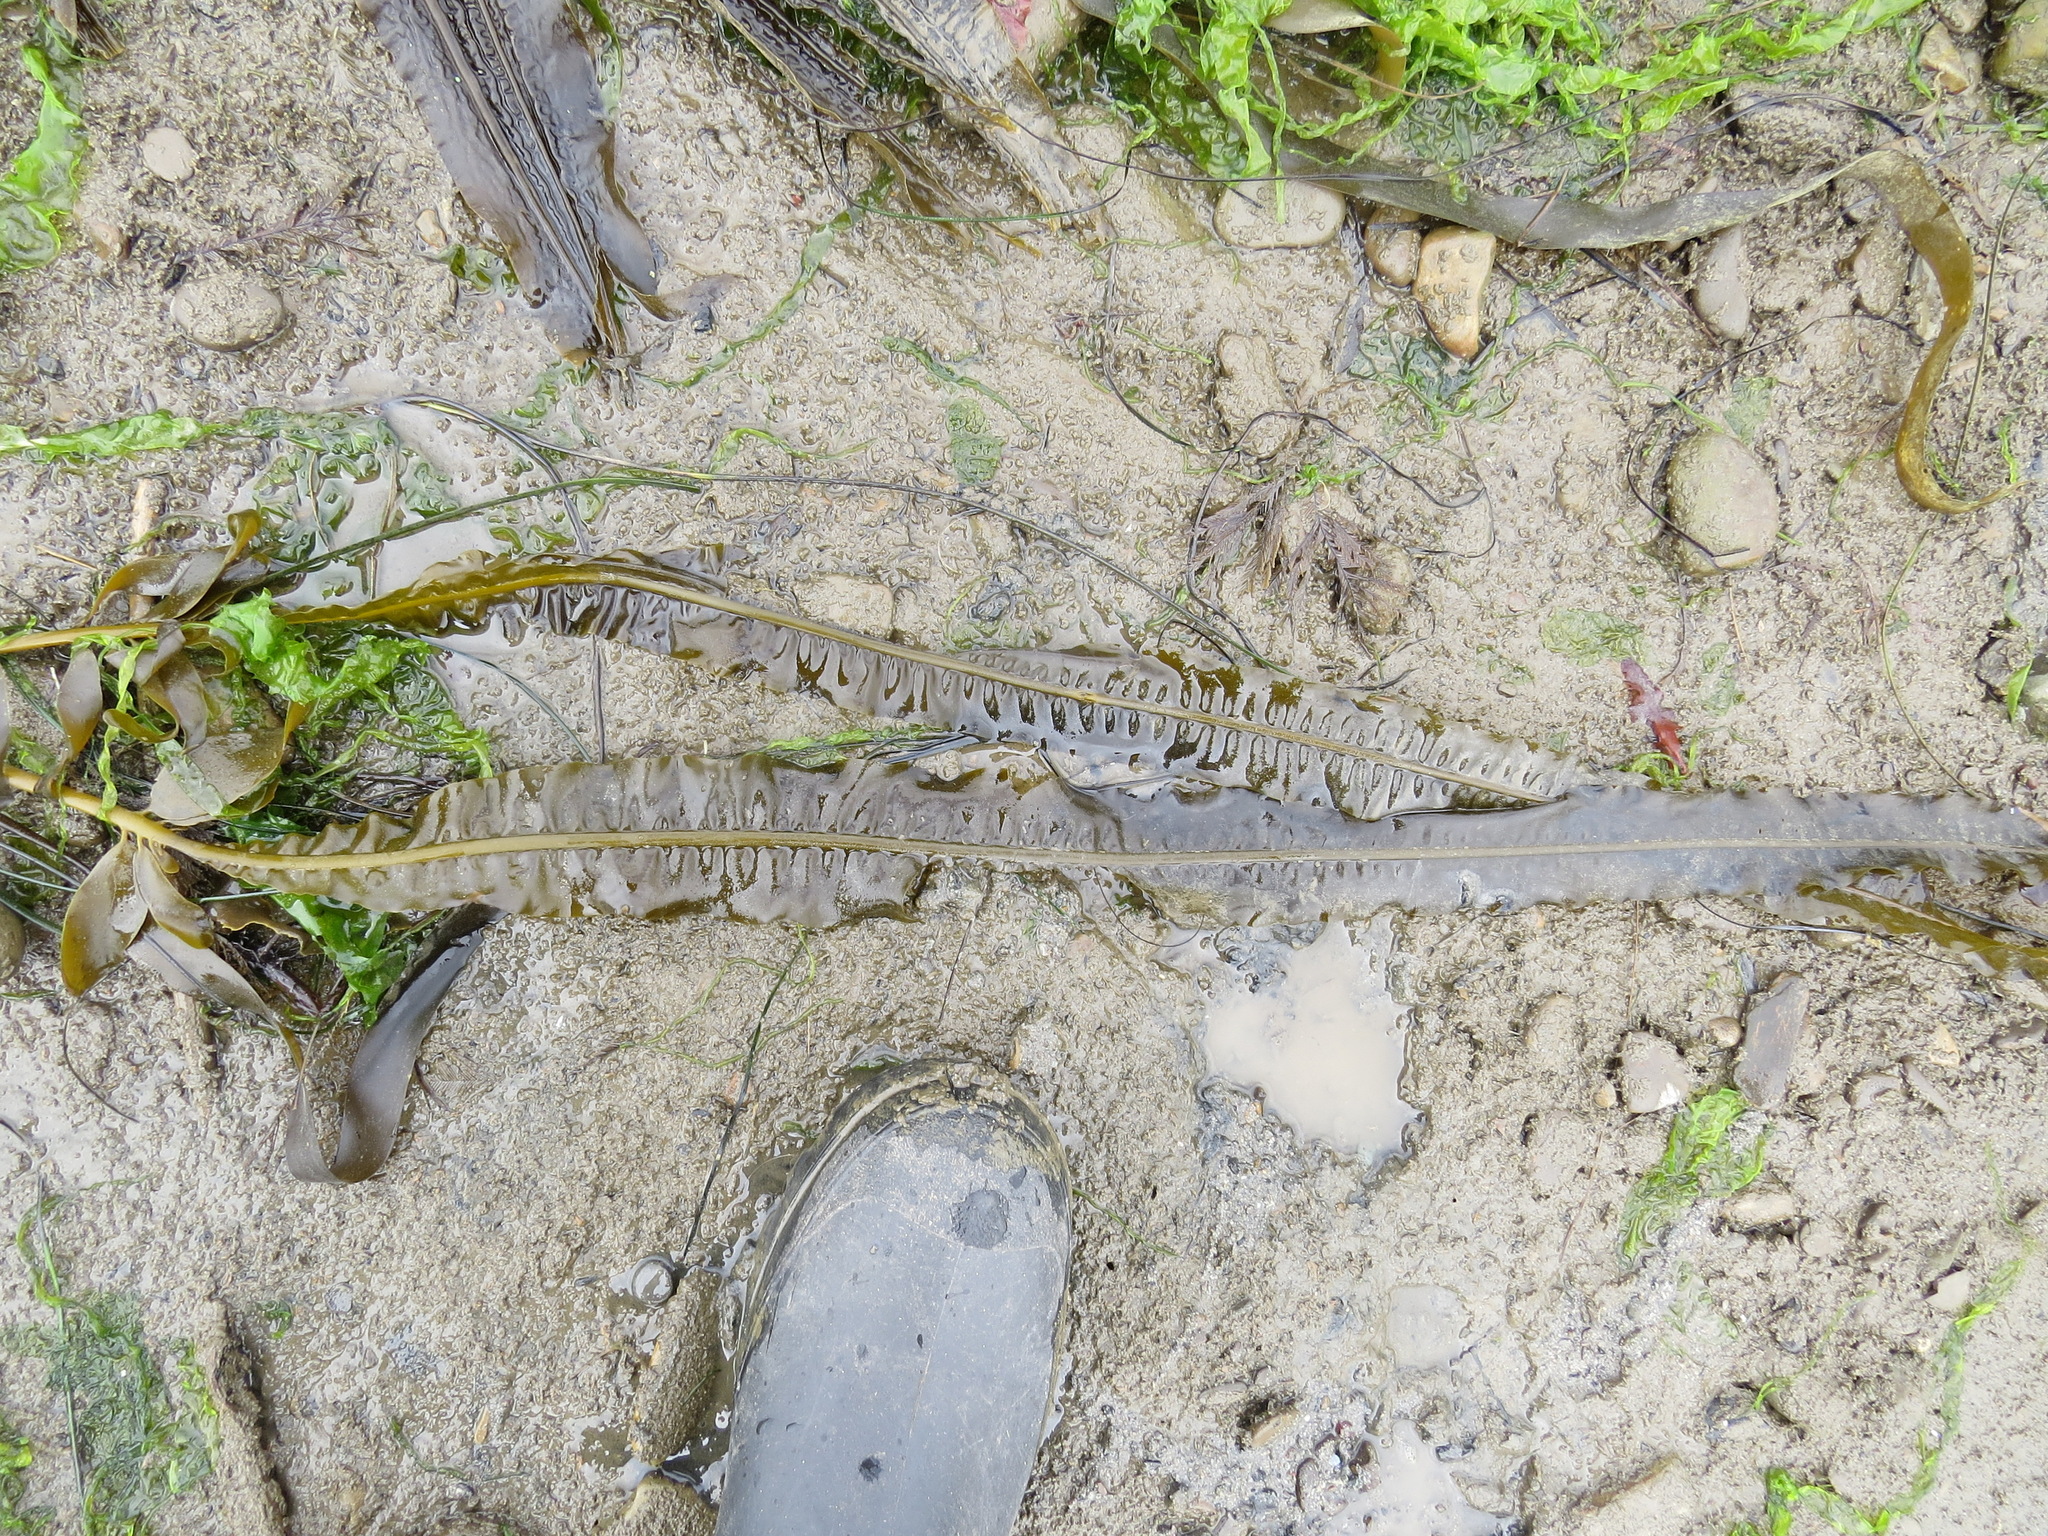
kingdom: Chromista
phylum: Ochrophyta
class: Phaeophyceae
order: Laminariales
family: Alariaceae
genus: Alaria
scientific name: Alaria marginata
